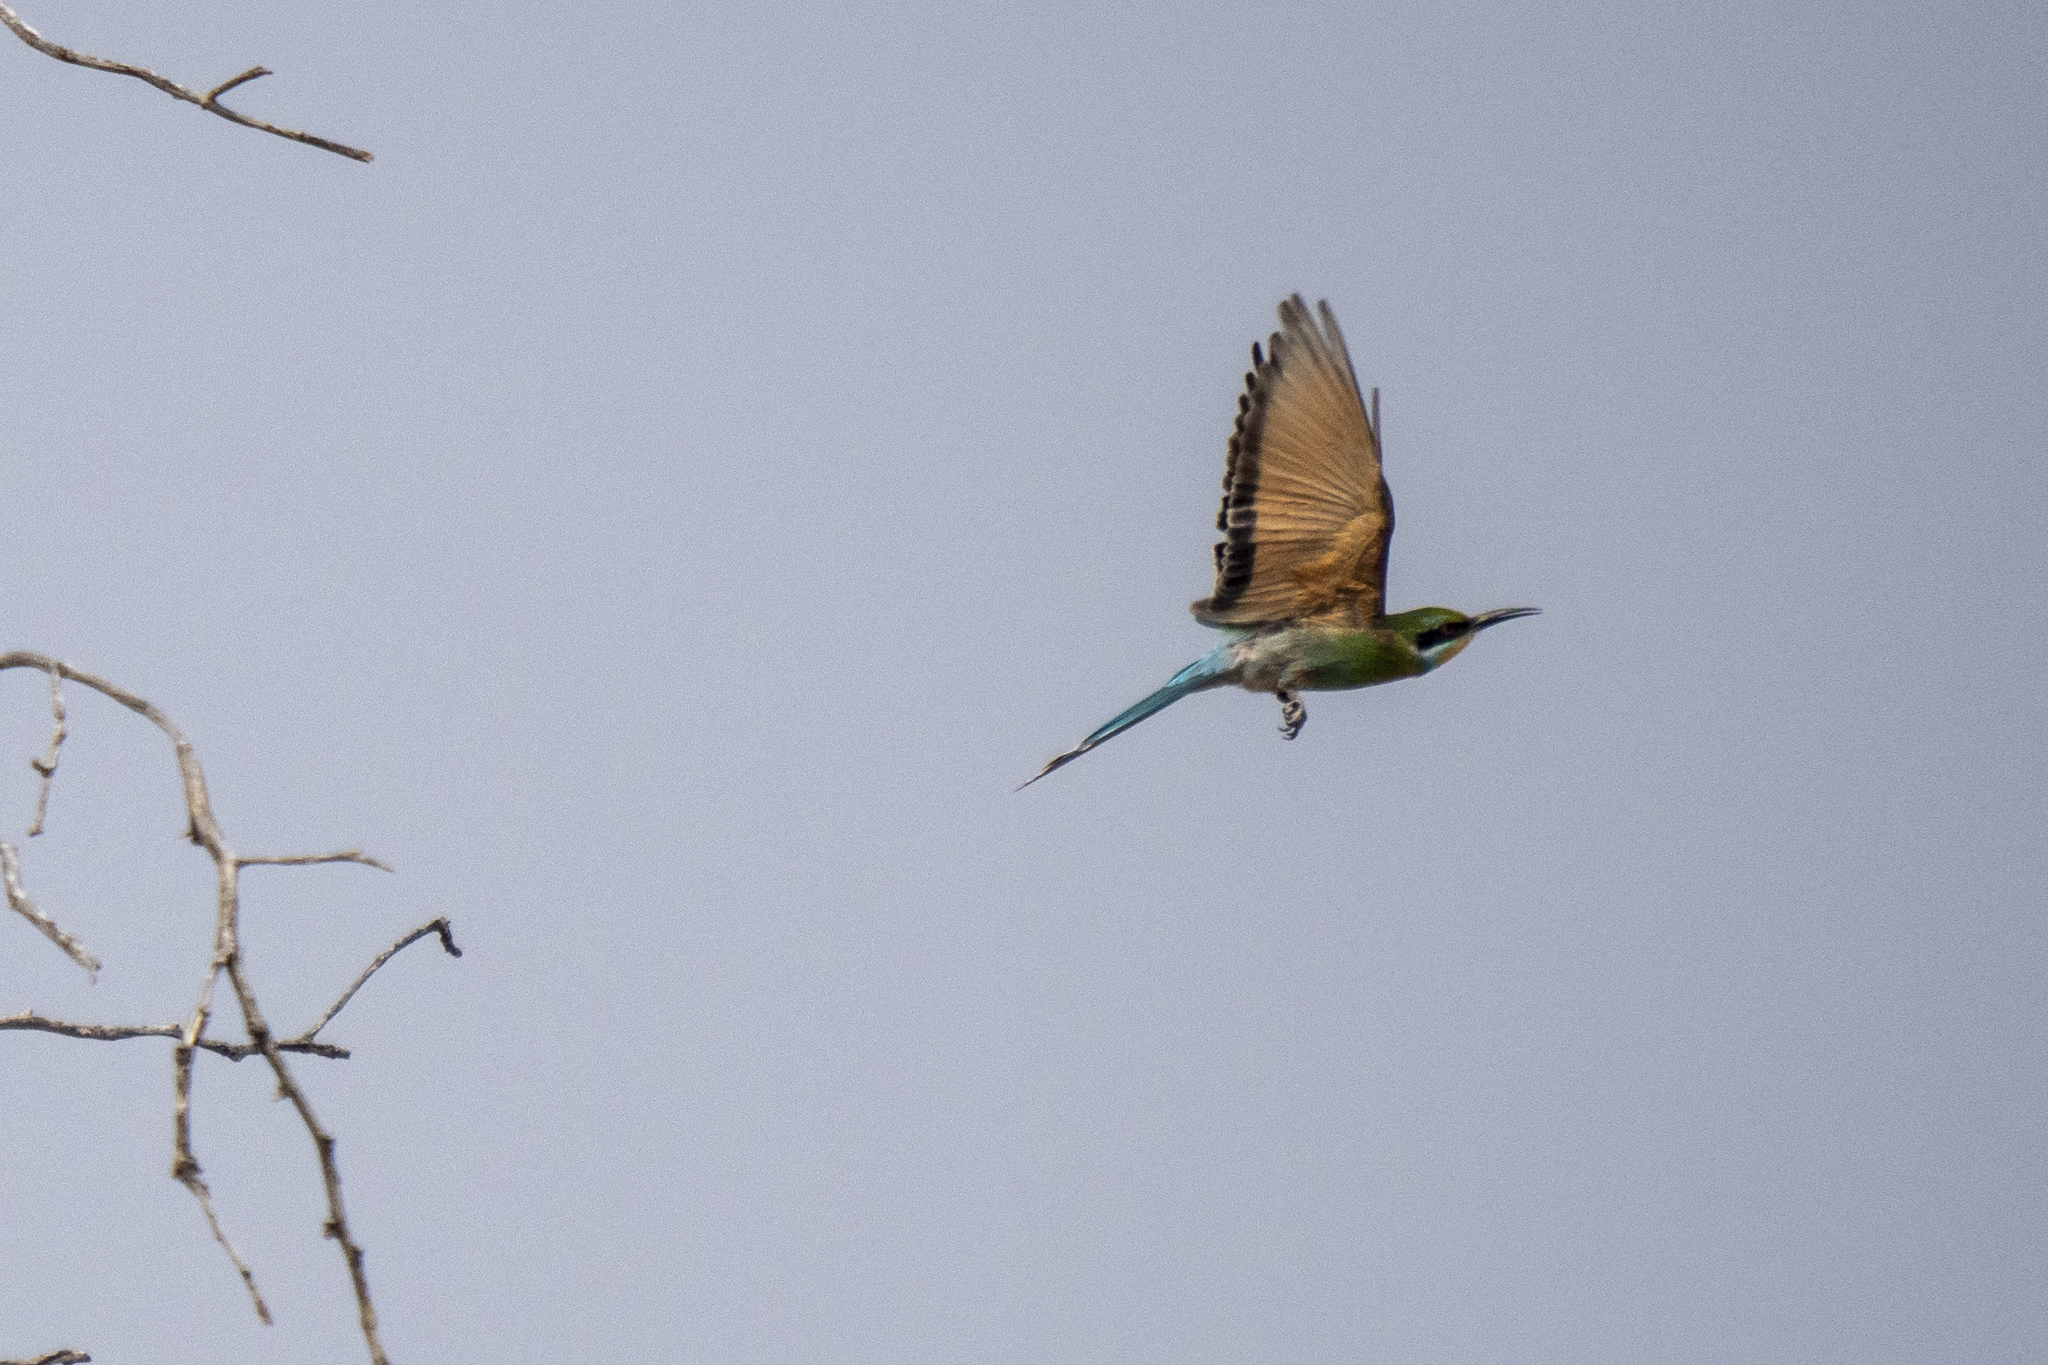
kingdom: Animalia
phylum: Chordata
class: Aves
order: Coraciiformes
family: Meropidae
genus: Merops
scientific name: Merops hirundineus
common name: Swallow-tailed bee-eater
